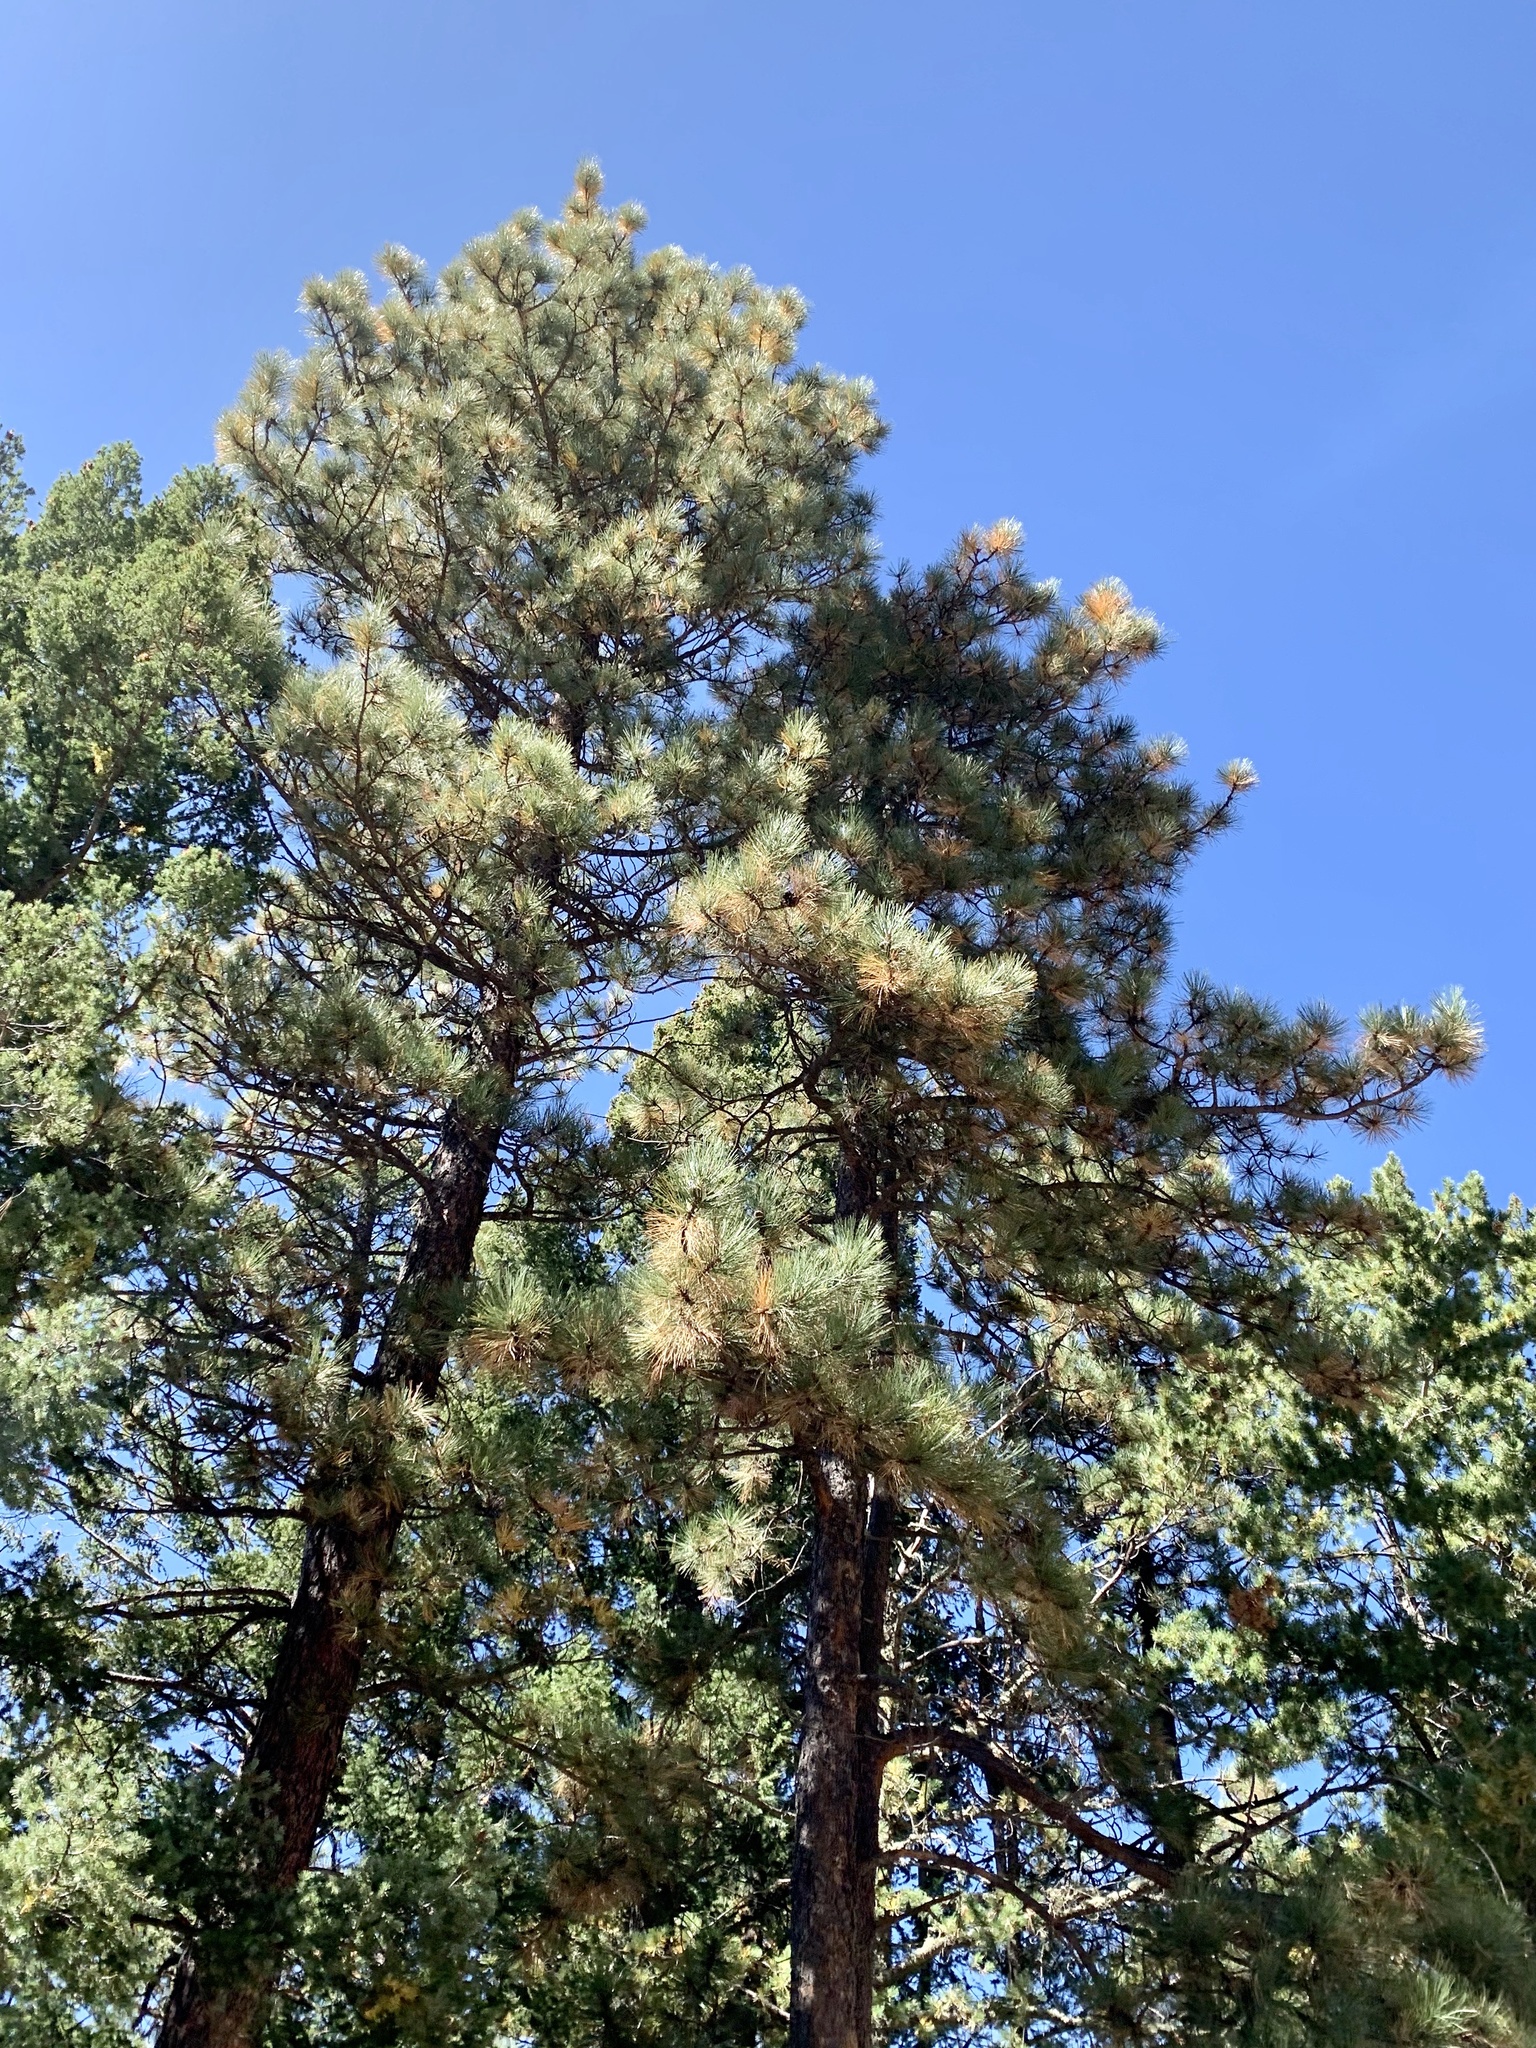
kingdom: Plantae
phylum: Tracheophyta
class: Pinopsida
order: Pinales
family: Pinaceae
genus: Pinus
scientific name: Pinus ponderosa
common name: Western yellow-pine
